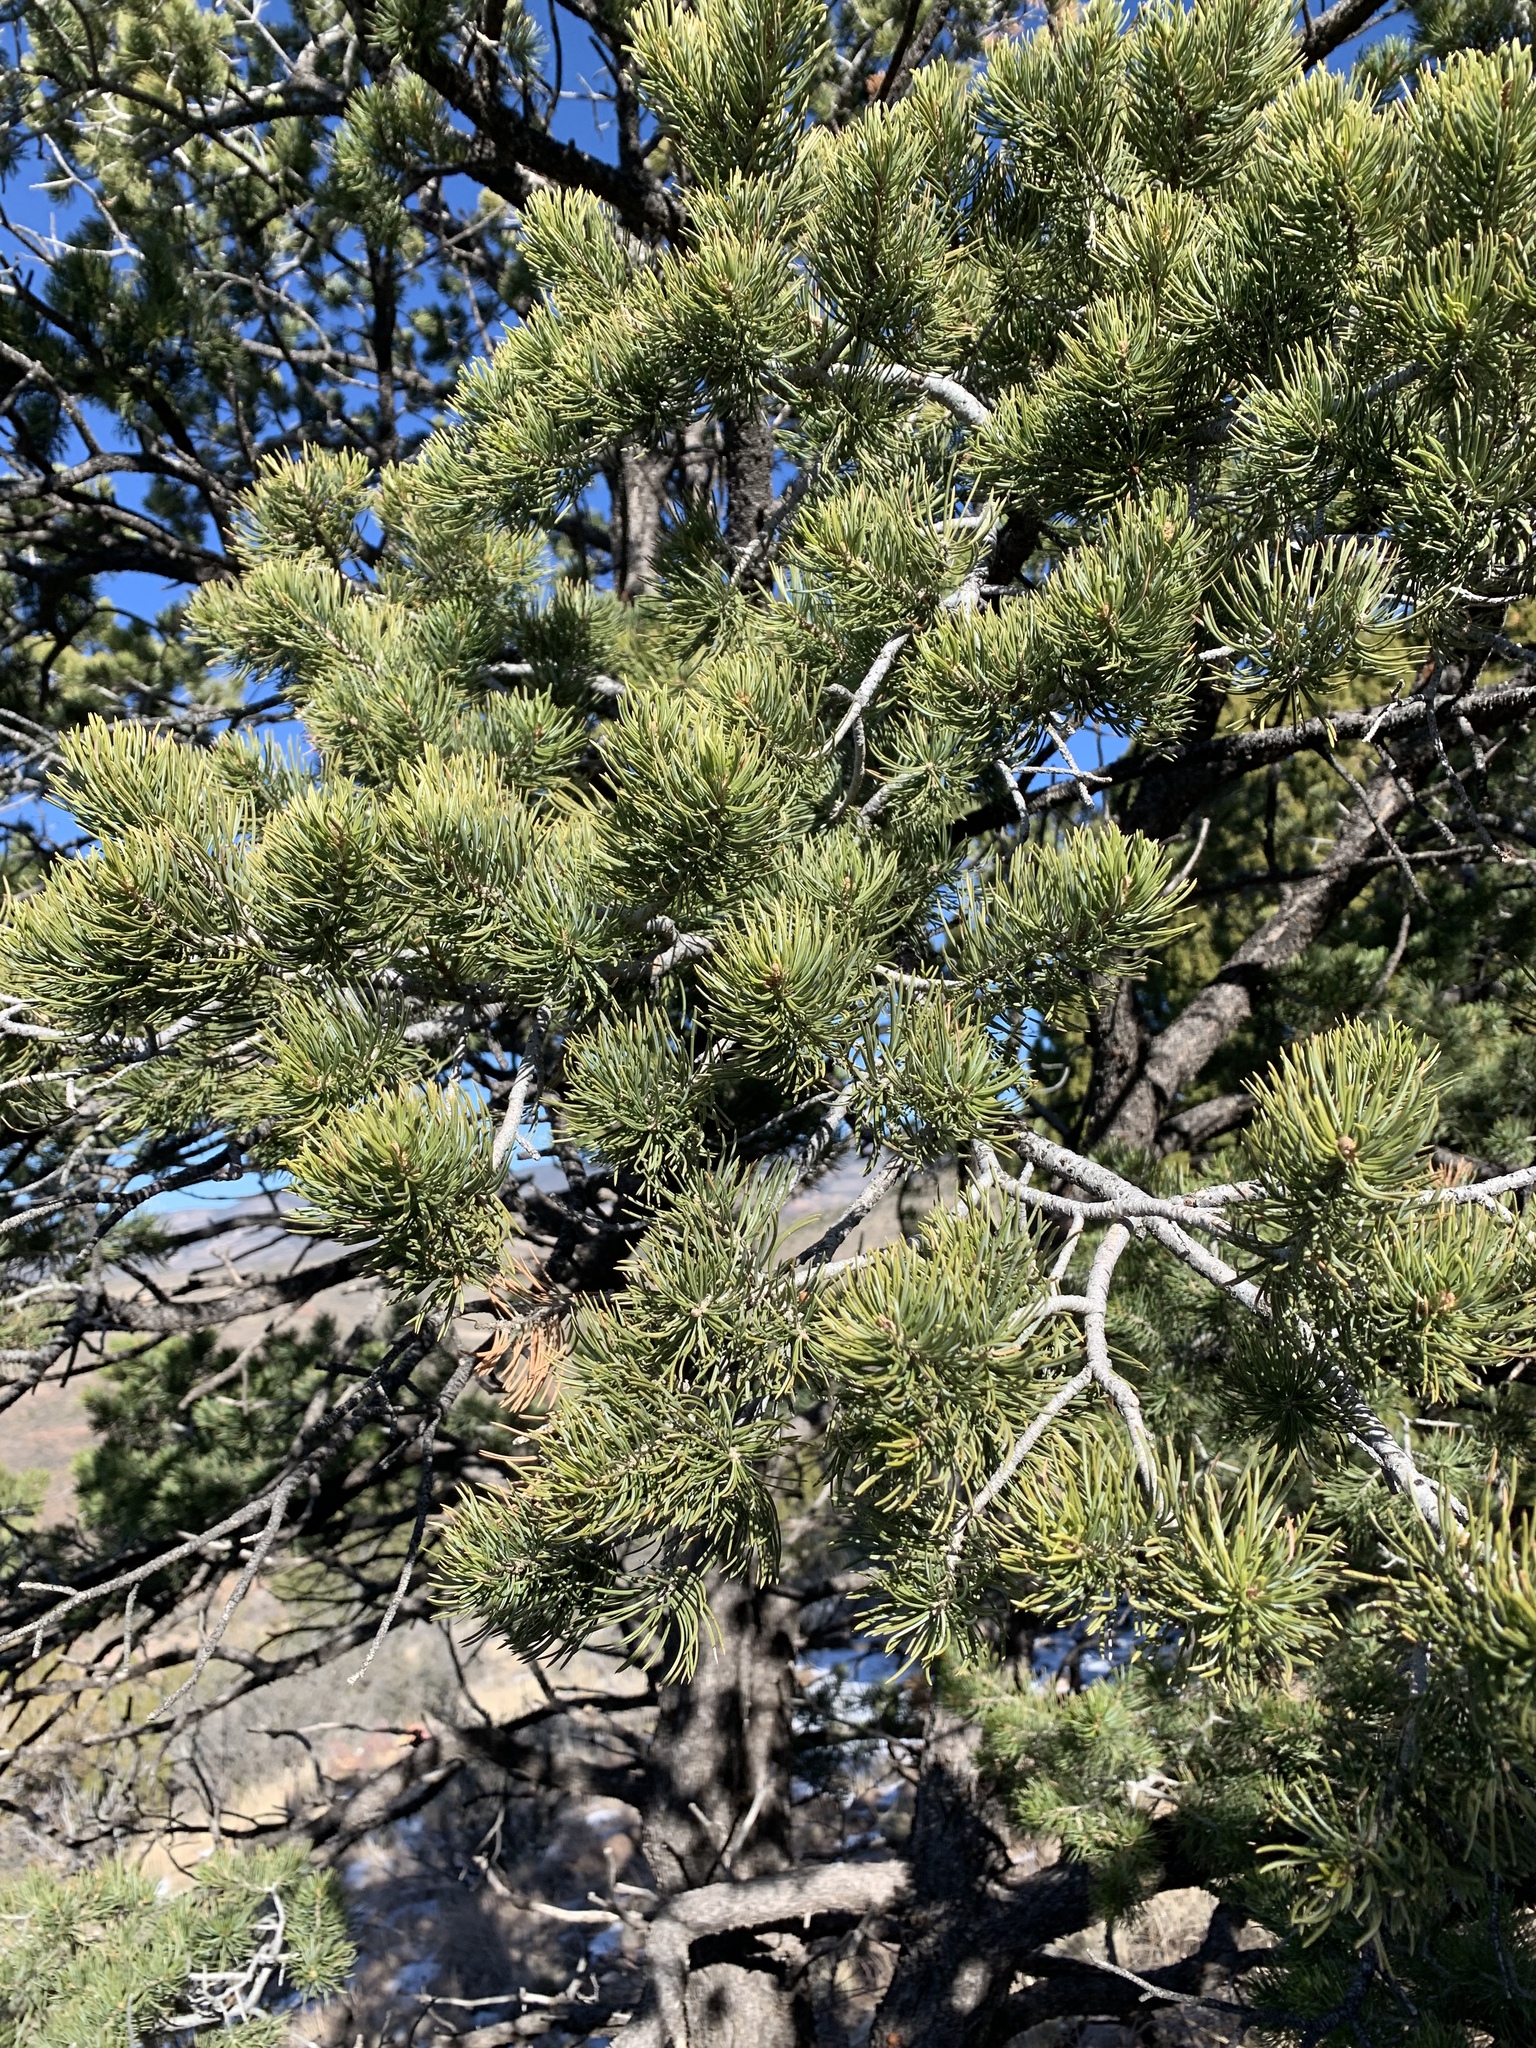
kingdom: Plantae
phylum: Tracheophyta
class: Pinopsida
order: Pinales
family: Pinaceae
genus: Pinus
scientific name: Pinus edulis
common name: Colorado pinyon
